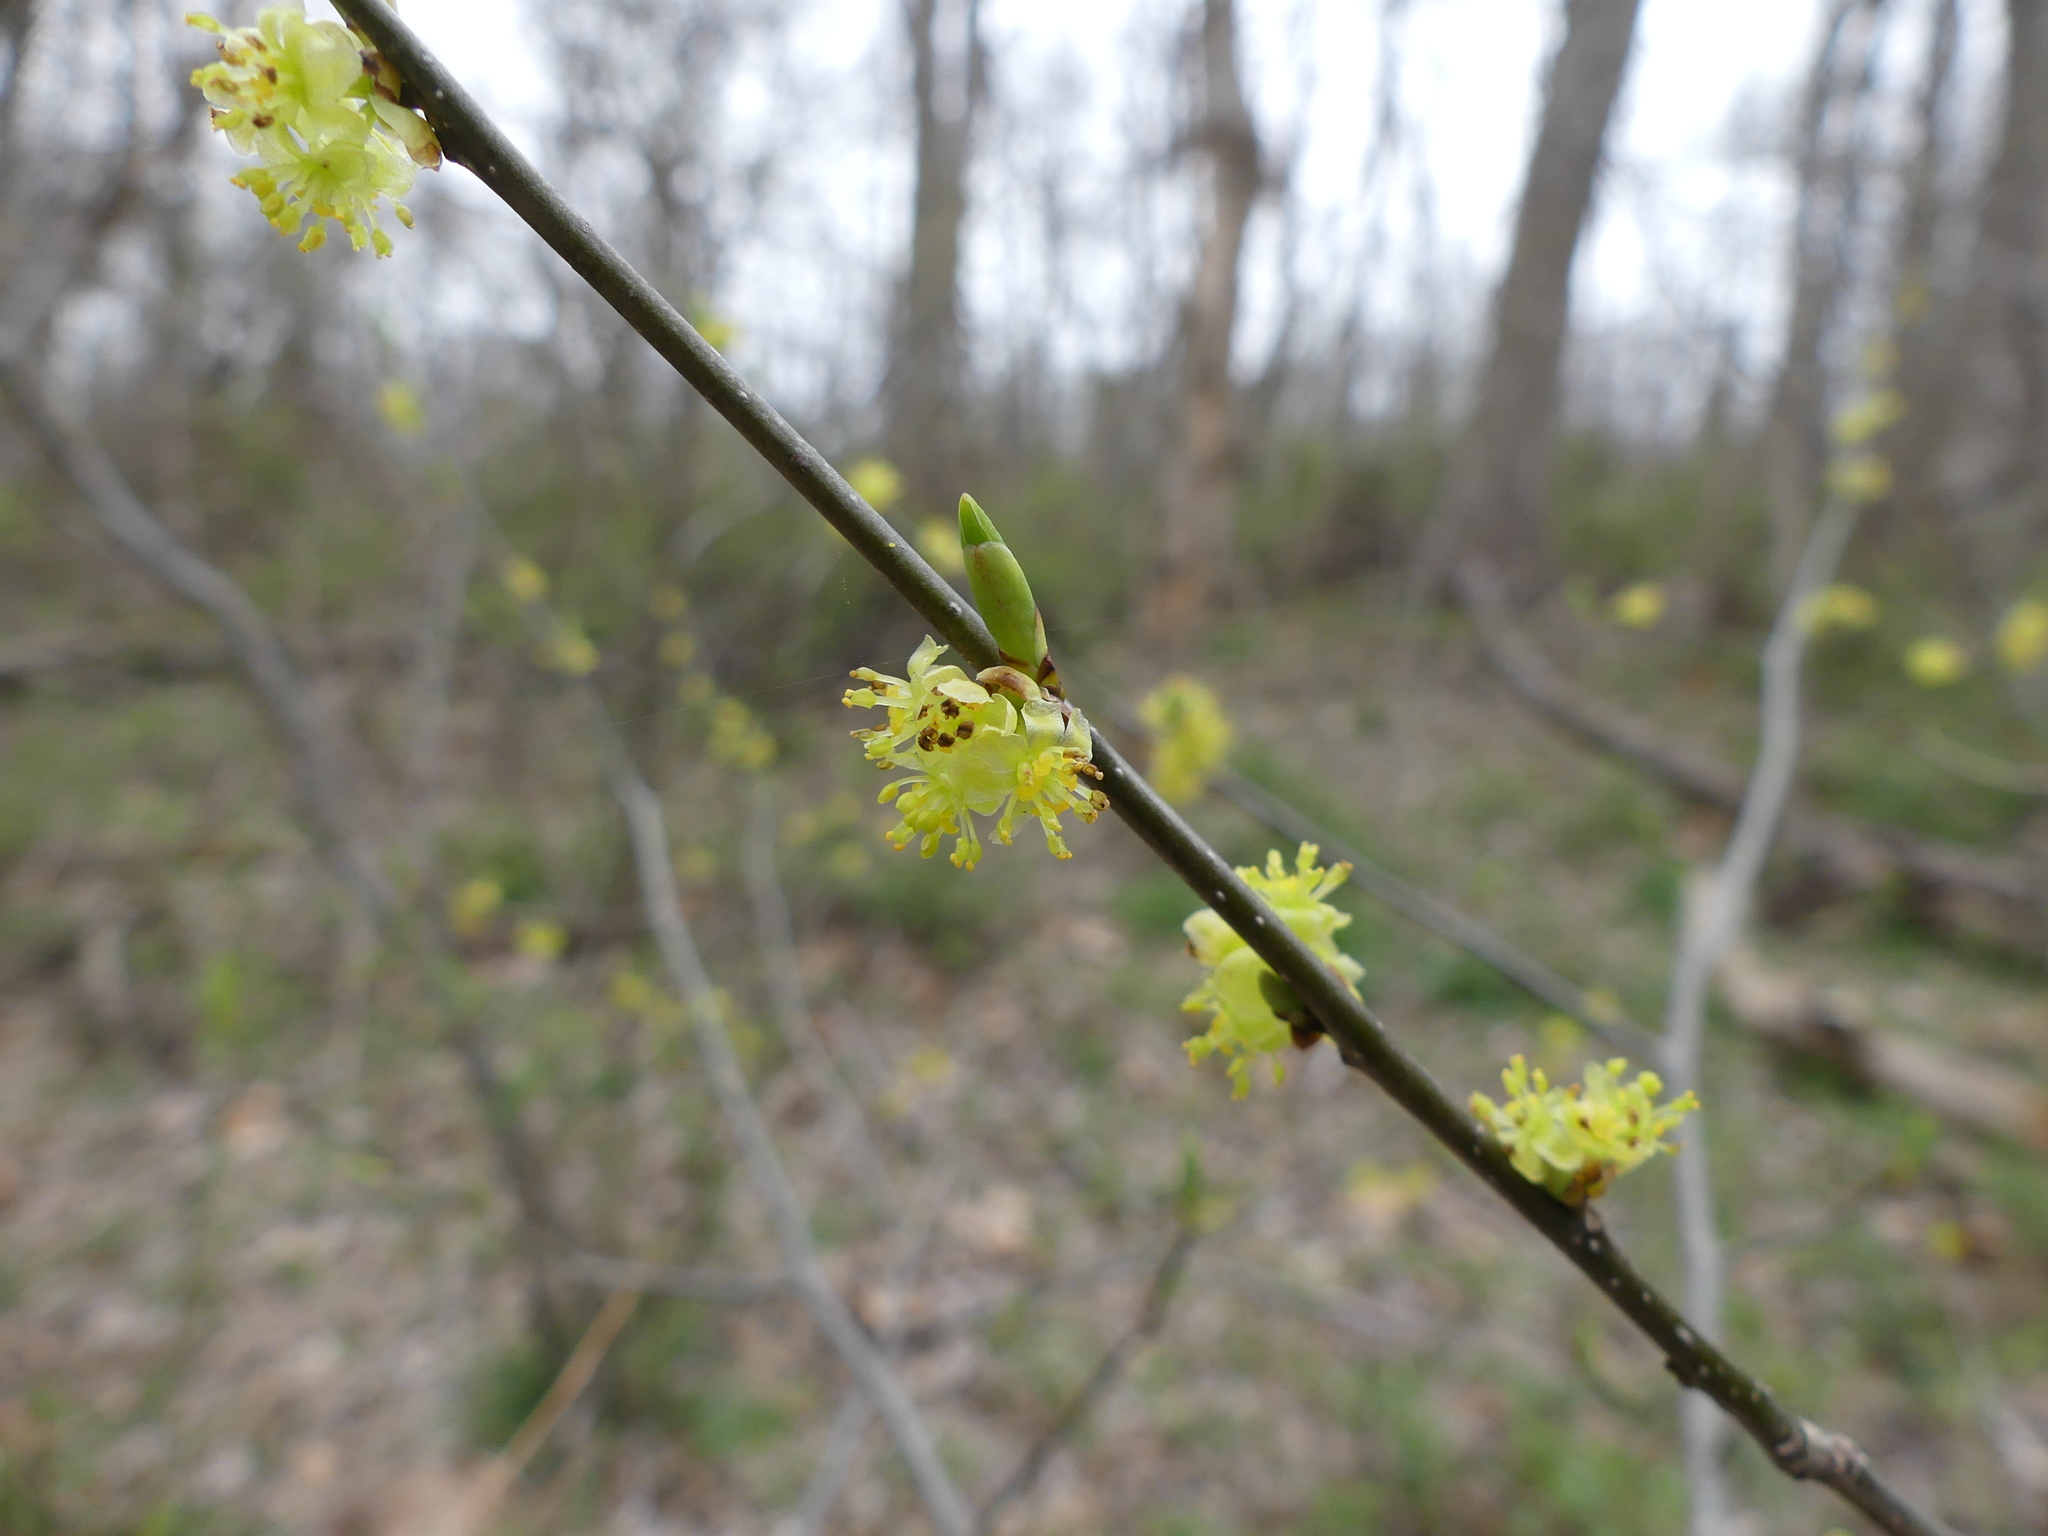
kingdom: Plantae
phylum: Tracheophyta
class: Magnoliopsida
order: Laurales
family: Lauraceae
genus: Lindera
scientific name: Lindera benzoin
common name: Spicebush
